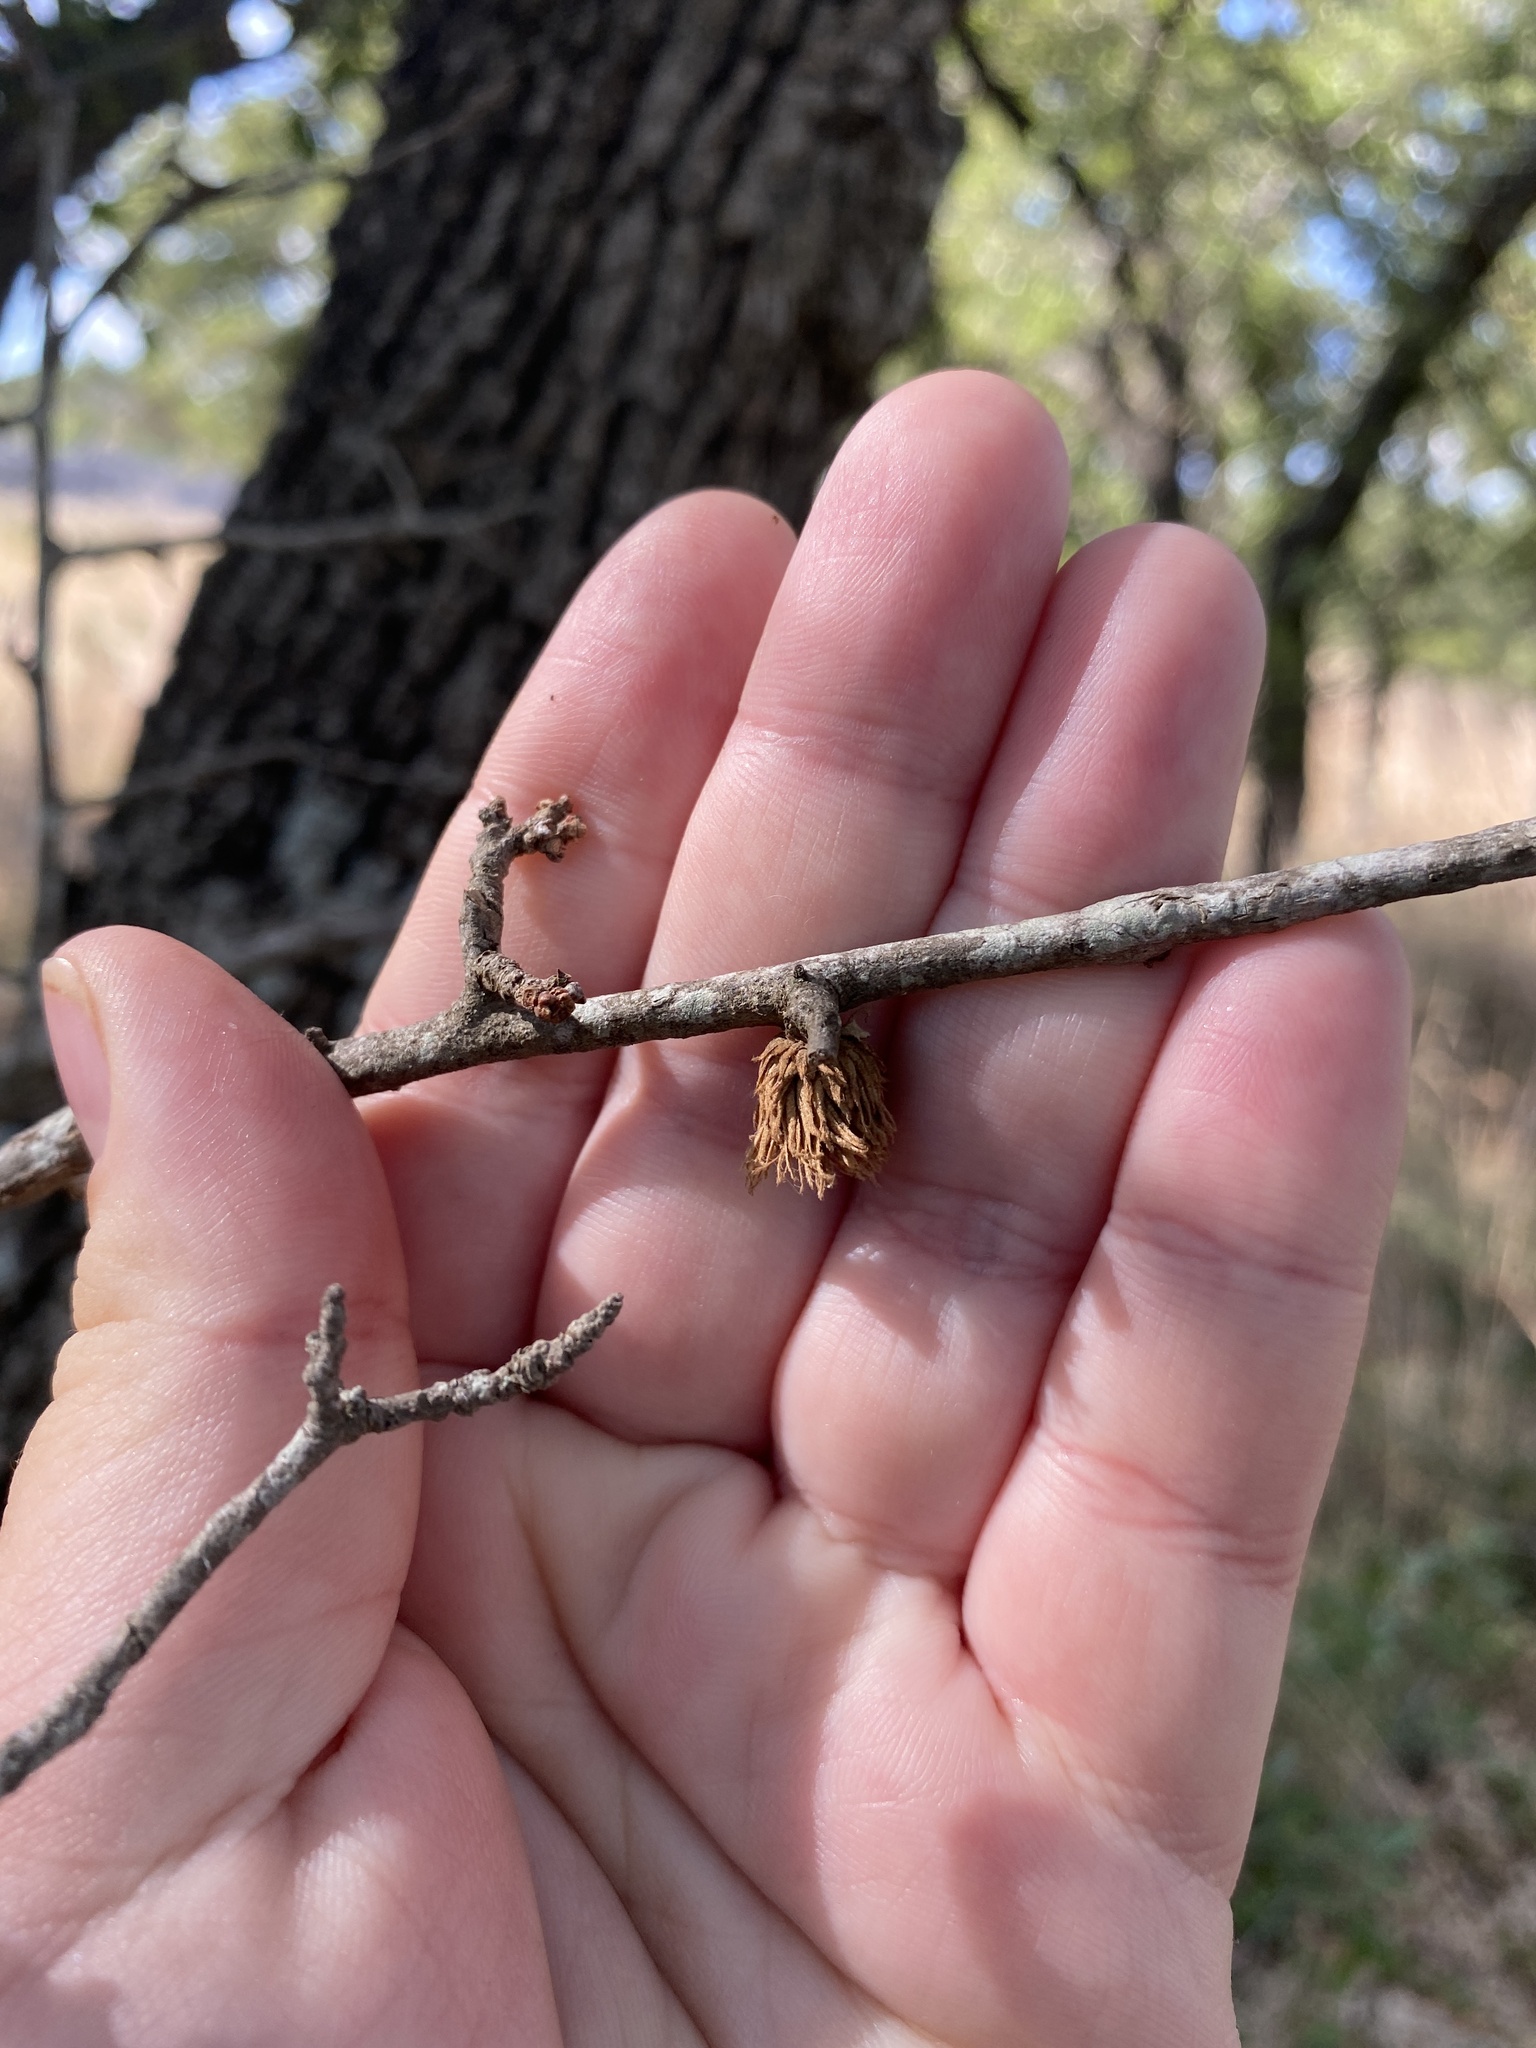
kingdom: Animalia
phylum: Arthropoda
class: Insecta
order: Hymenoptera
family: Cynipidae
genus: Andricus
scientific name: Andricus quercusfoliatus
